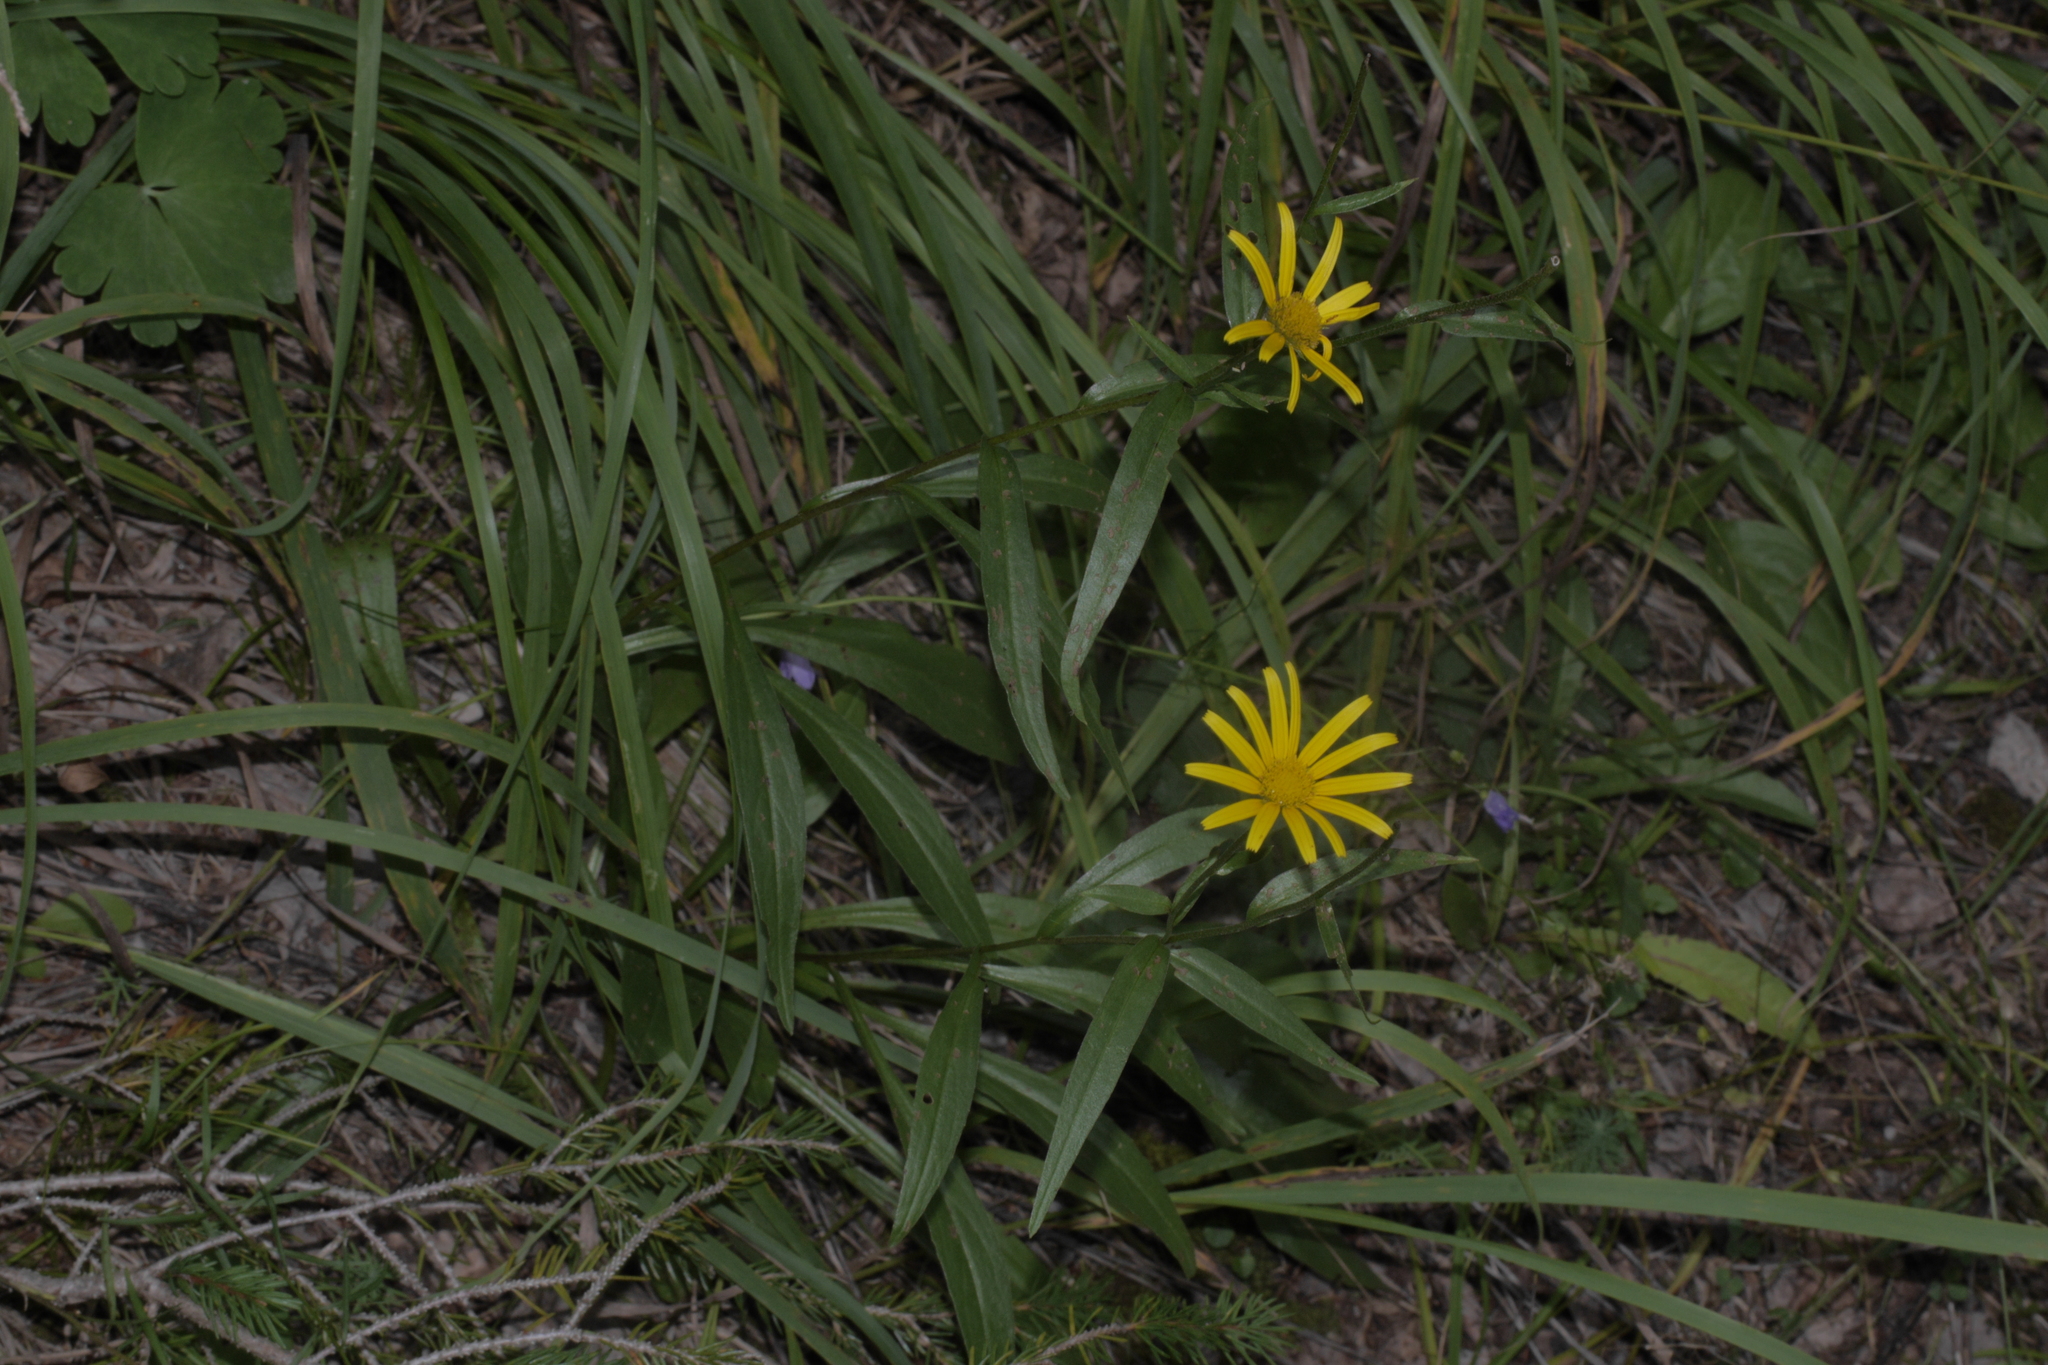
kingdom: Plantae
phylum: Tracheophyta
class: Magnoliopsida
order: Asterales
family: Asteraceae
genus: Buphthalmum
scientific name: Buphthalmum salicifolium
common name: Willow-leaved yellow-oxeye
